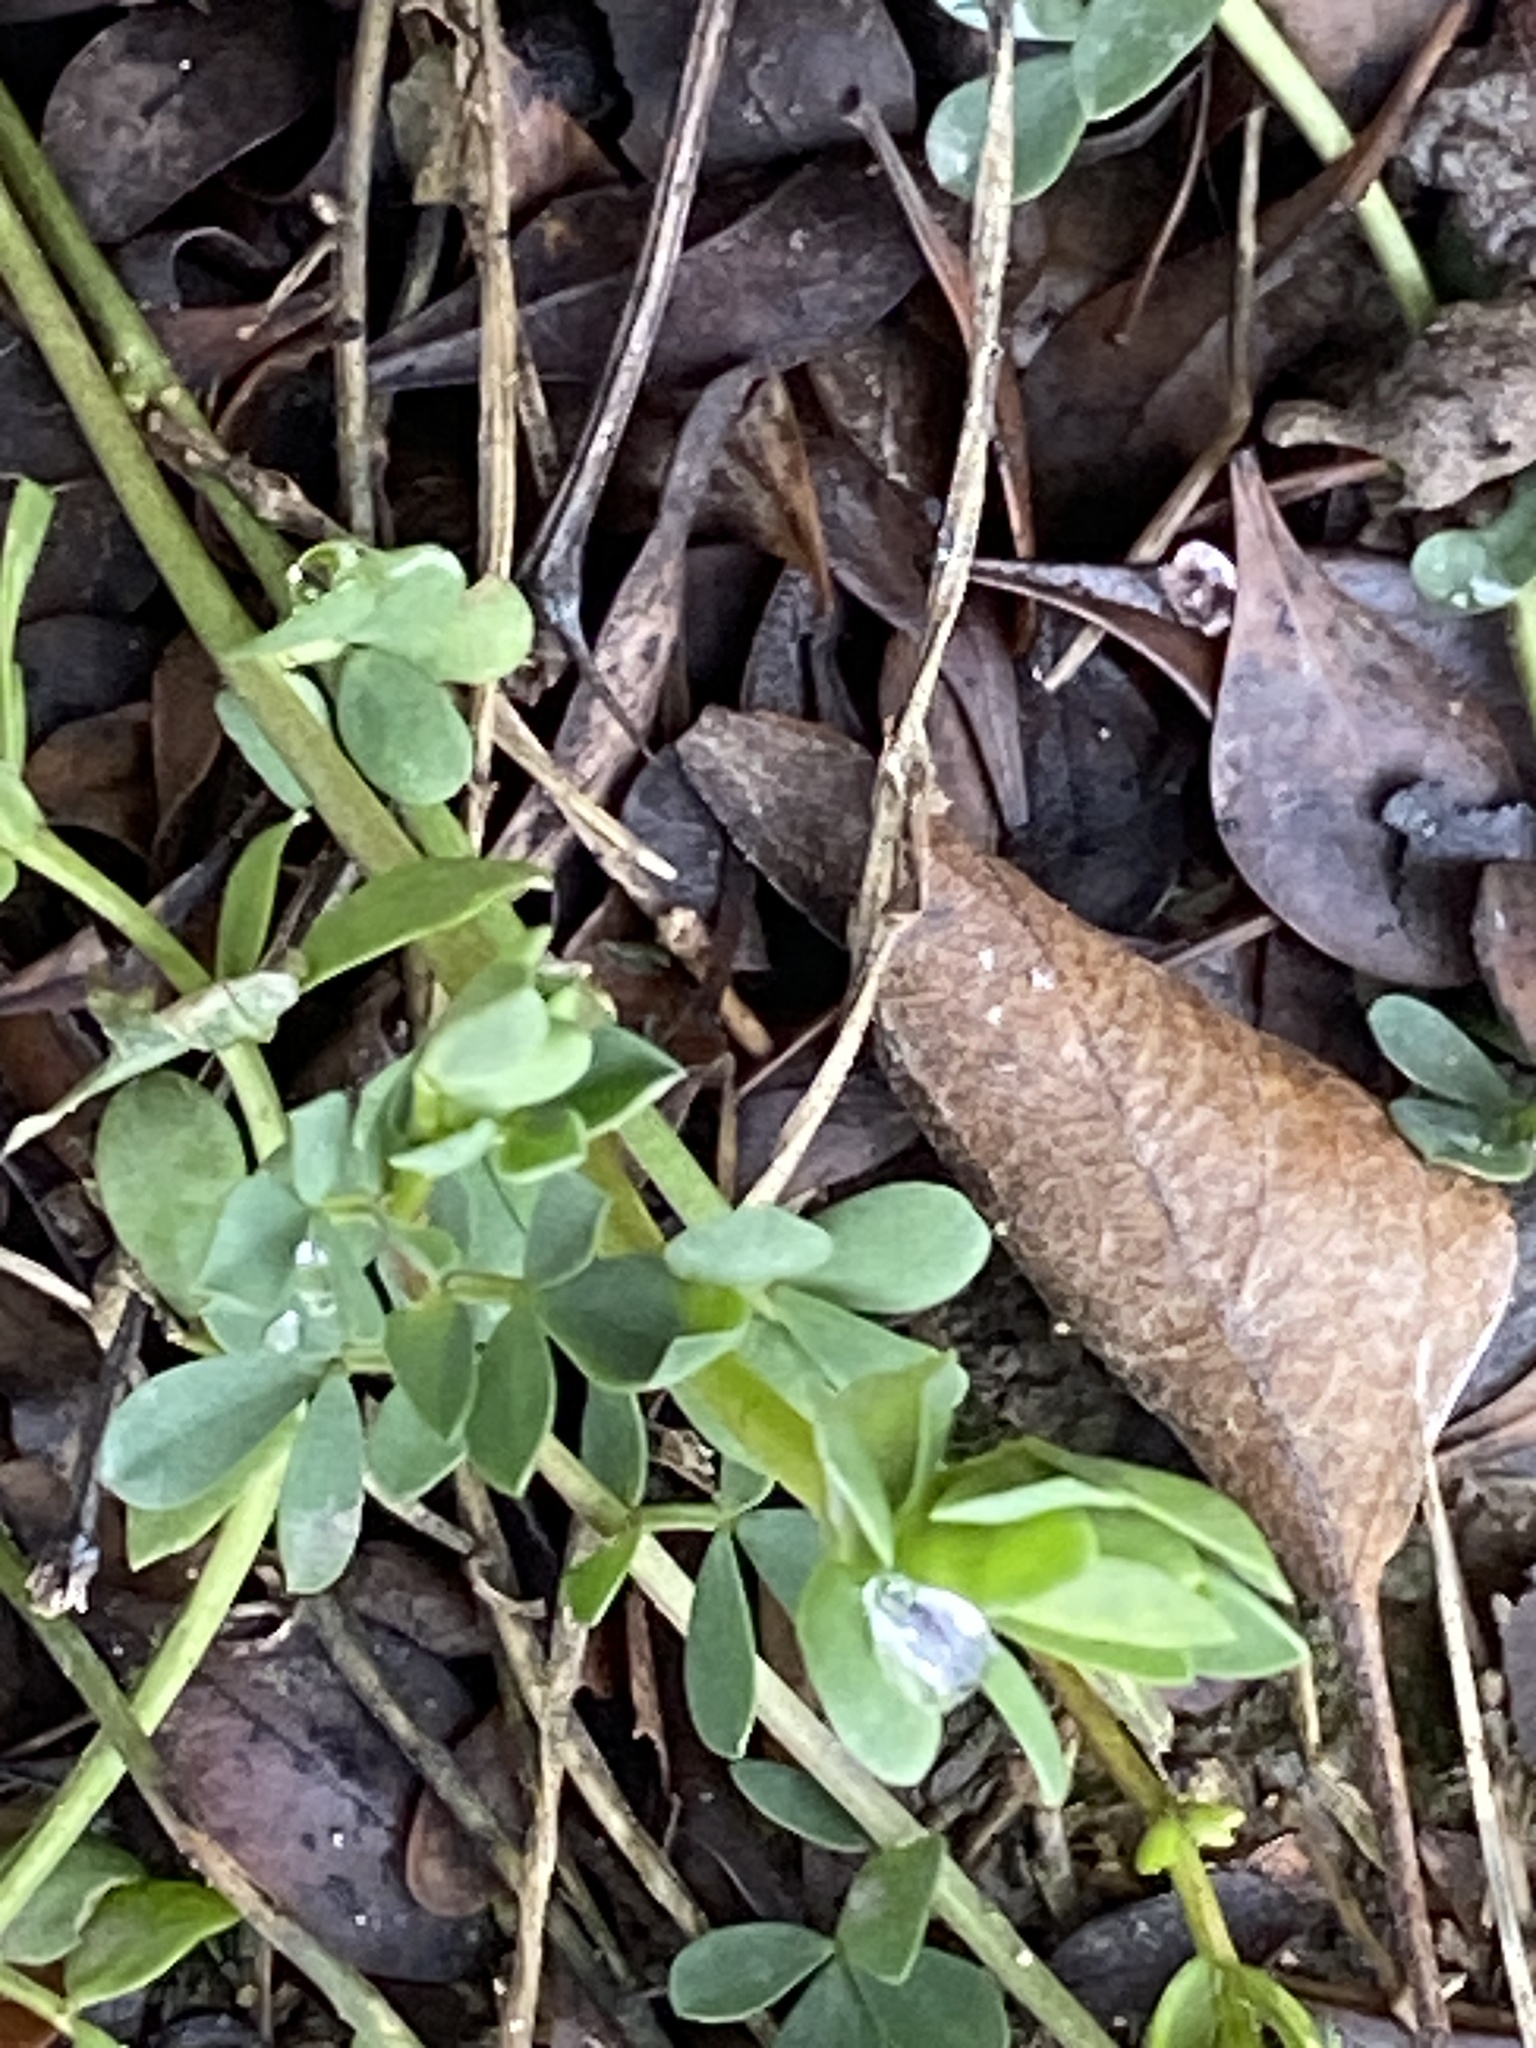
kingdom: Plantae
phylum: Tracheophyta
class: Magnoliopsida
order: Fabales
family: Fabaceae
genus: Lotus
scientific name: Lotus corniculatus
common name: Common bird's-foot-trefoil
